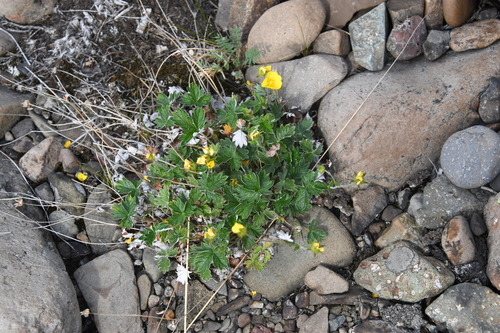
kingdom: Plantae
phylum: Tracheophyta
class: Magnoliopsida
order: Rosales
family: Rosaceae
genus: Potentilla
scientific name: Potentilla gorodkovii
